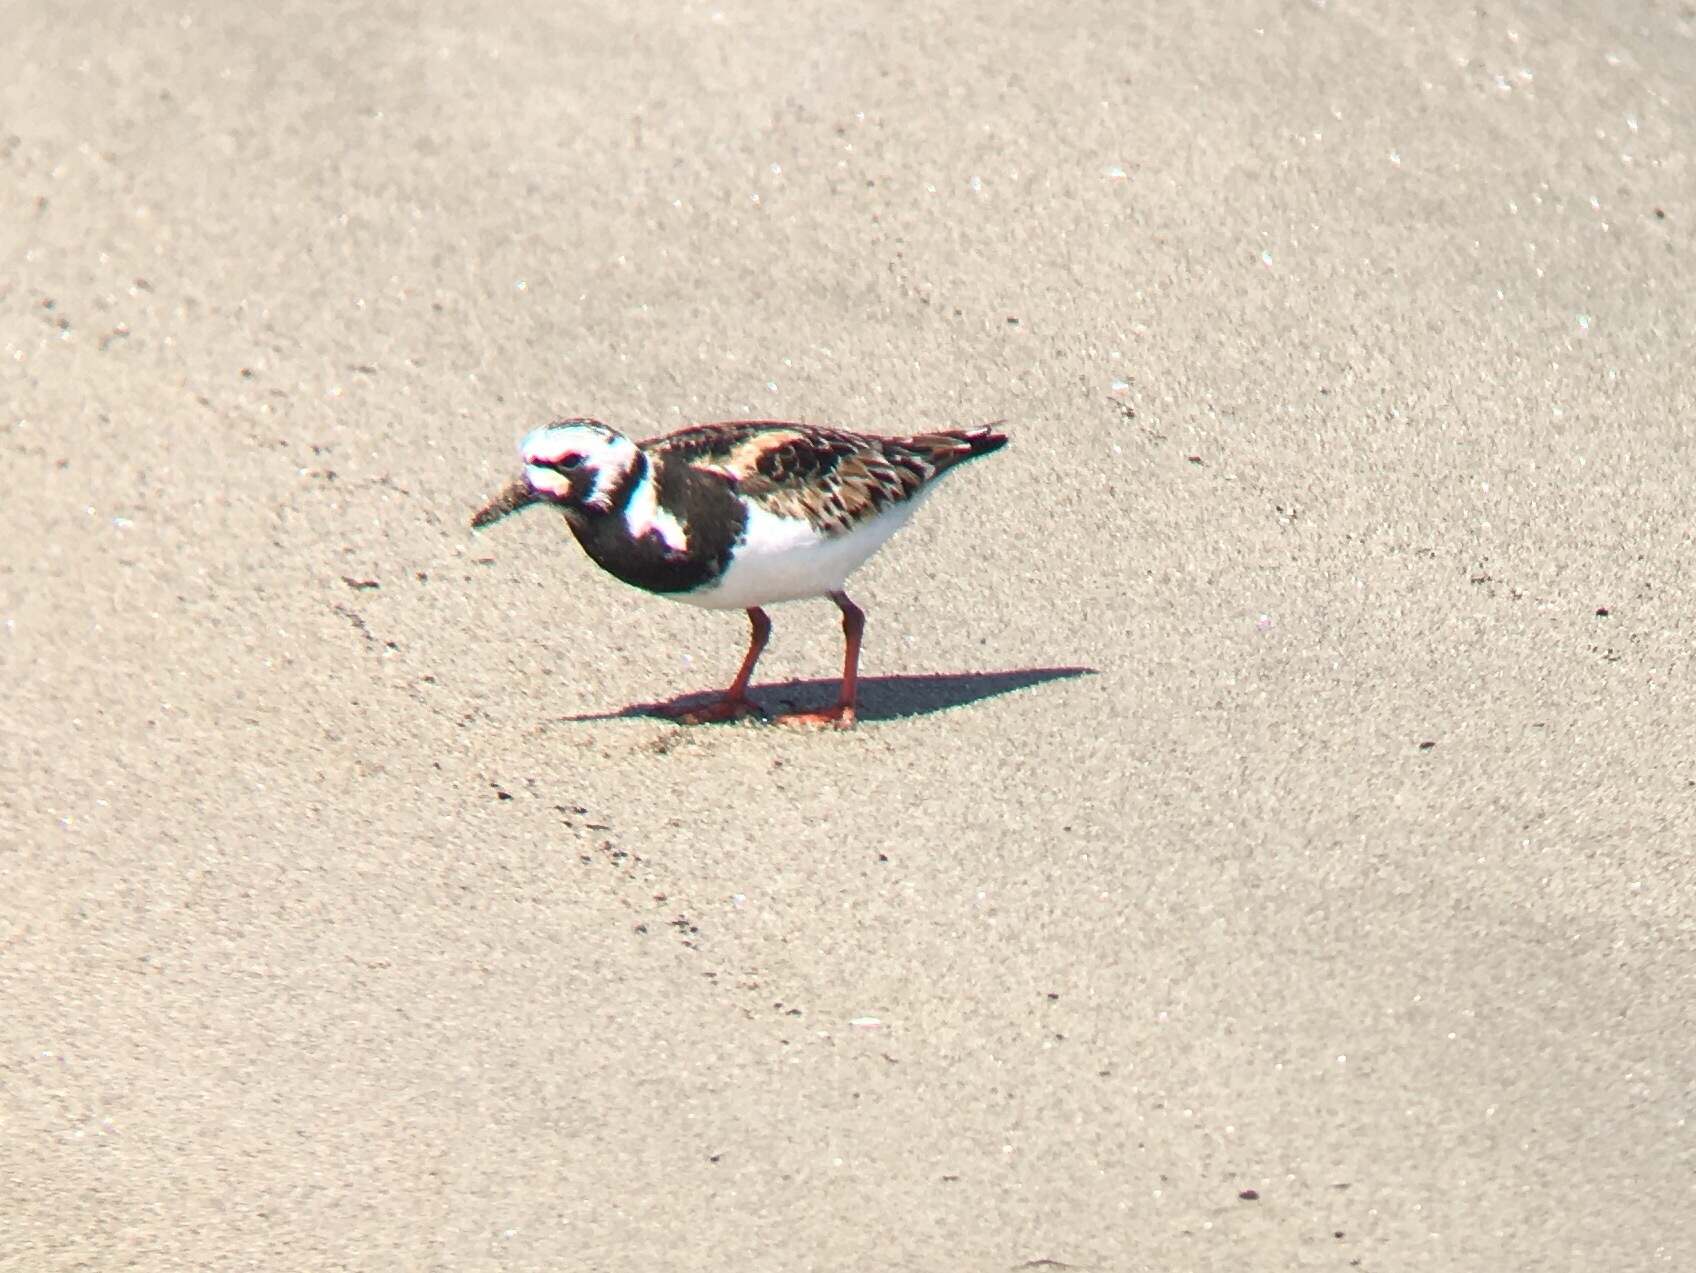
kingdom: Animalia
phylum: Chordata
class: Aves
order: Charadriiformes
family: Scolopacidae
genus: Arenaria
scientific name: Arenaria interpres
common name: Ruddy turnstone
